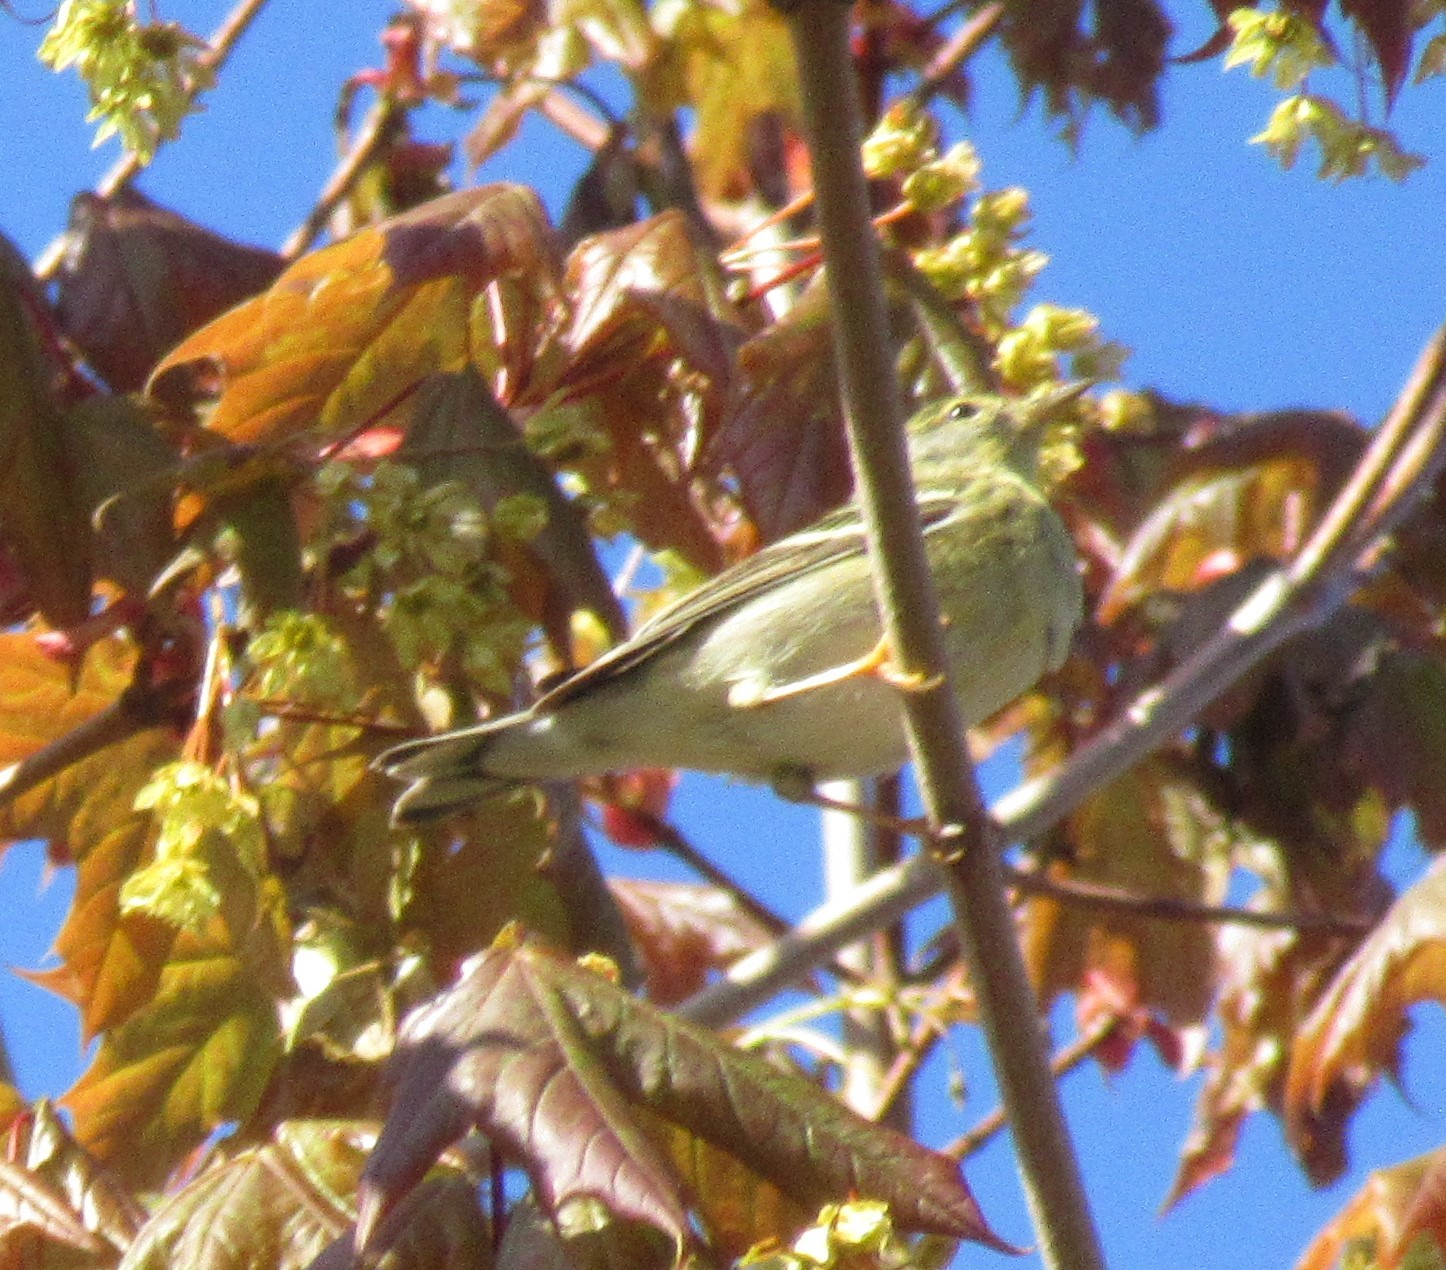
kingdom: Animalia
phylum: Chordata
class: Aves
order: Passeriformes
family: Parulidae
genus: Setophaga
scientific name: Setophaga striata
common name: Blackpoll warbler
